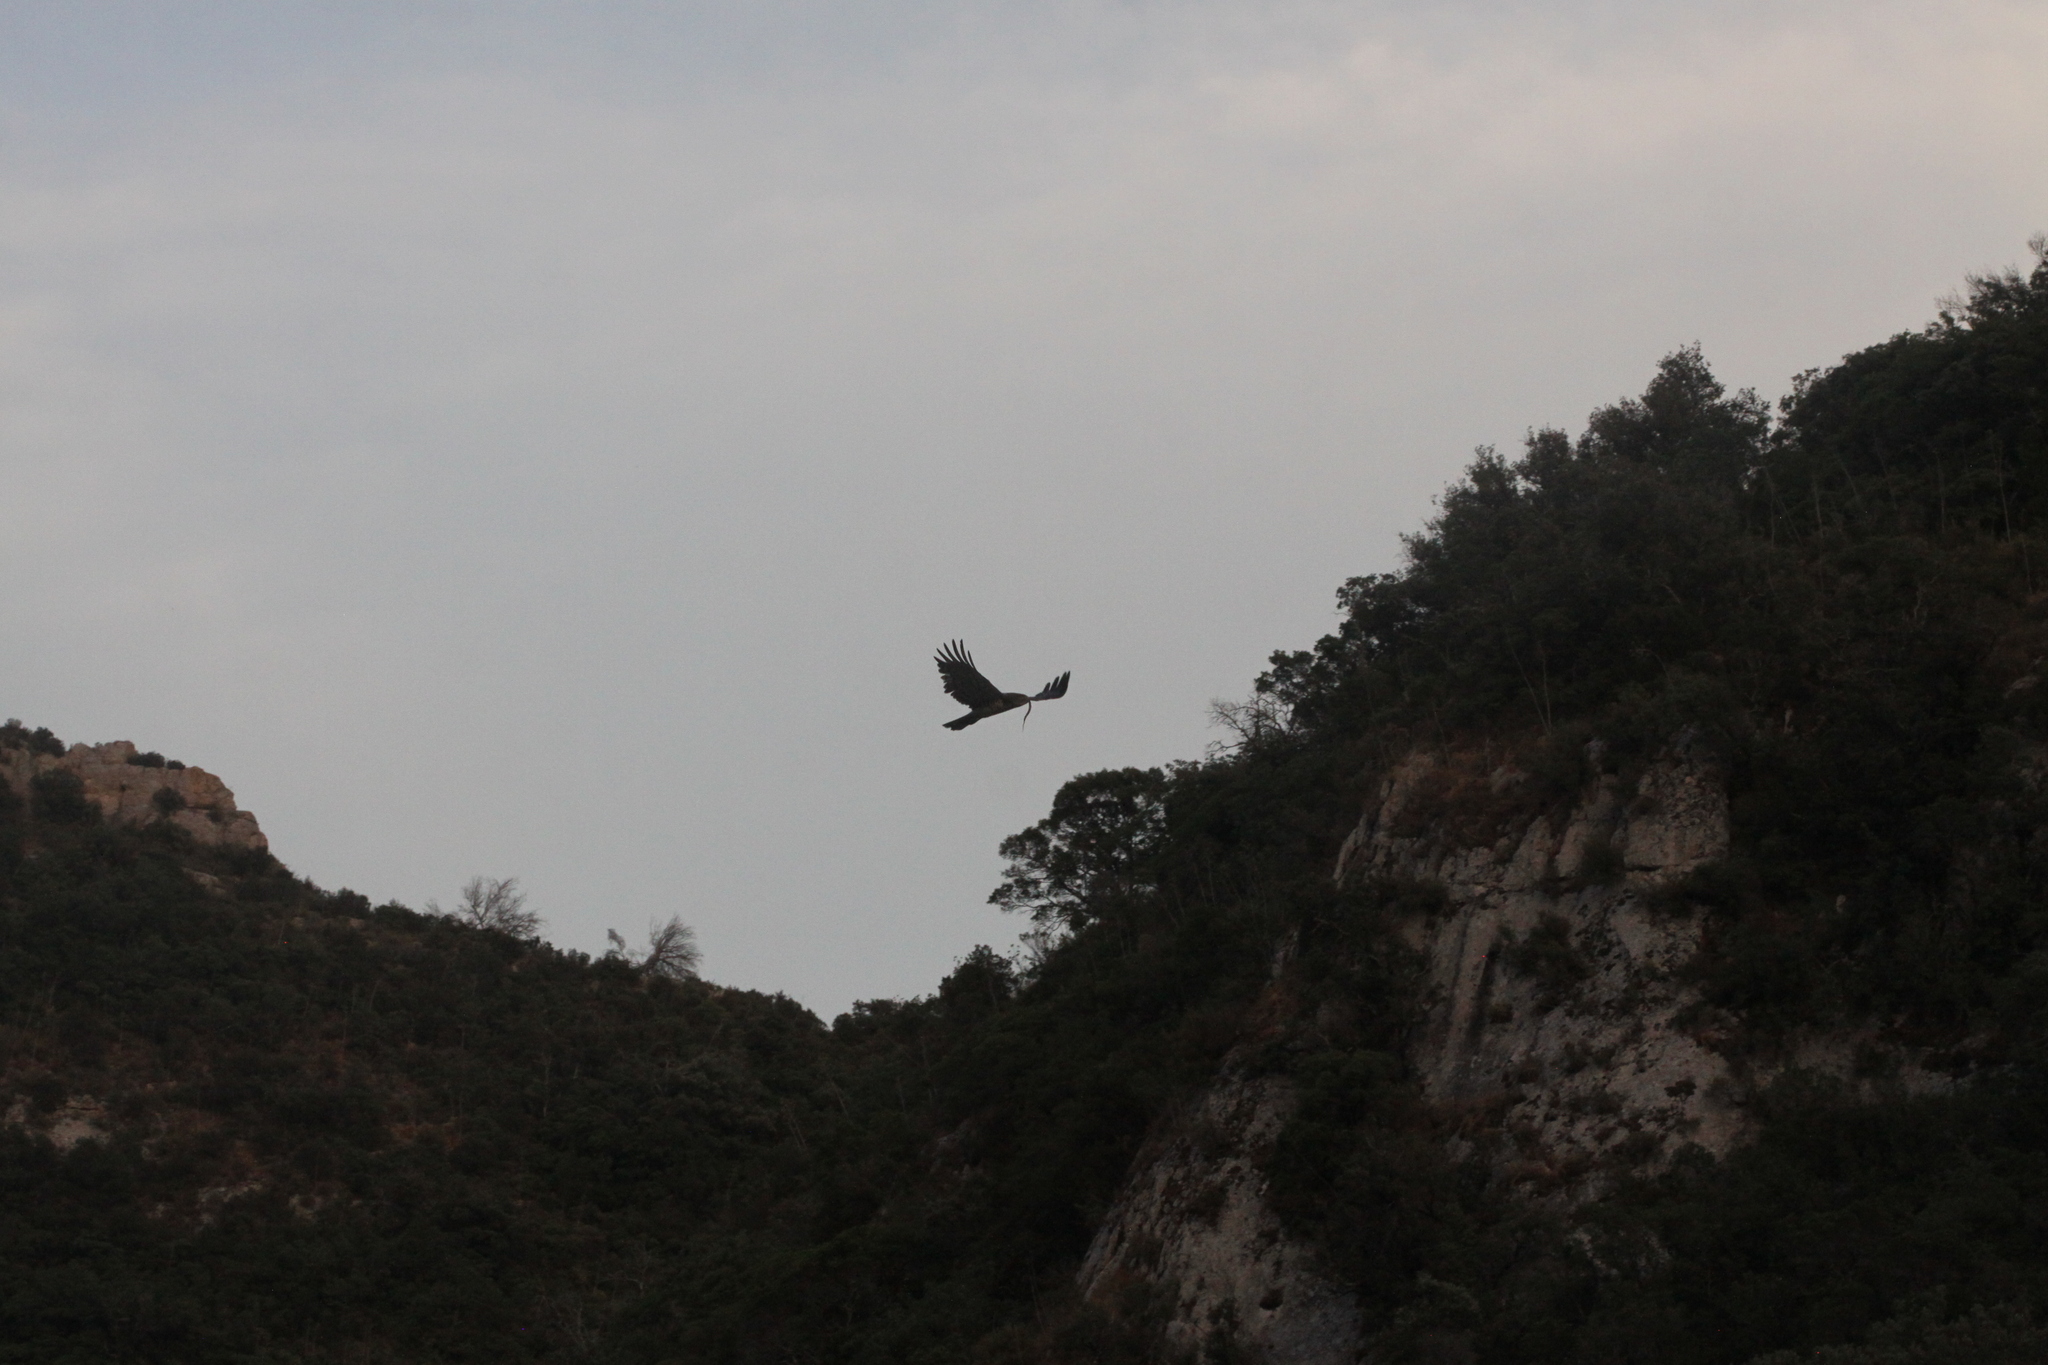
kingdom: Animalia
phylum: Chordata
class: Aves
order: Accipitriformes
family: Accipitridae
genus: Circaetus
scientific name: Circaetus gallicus
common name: Short-toed snake eagle
